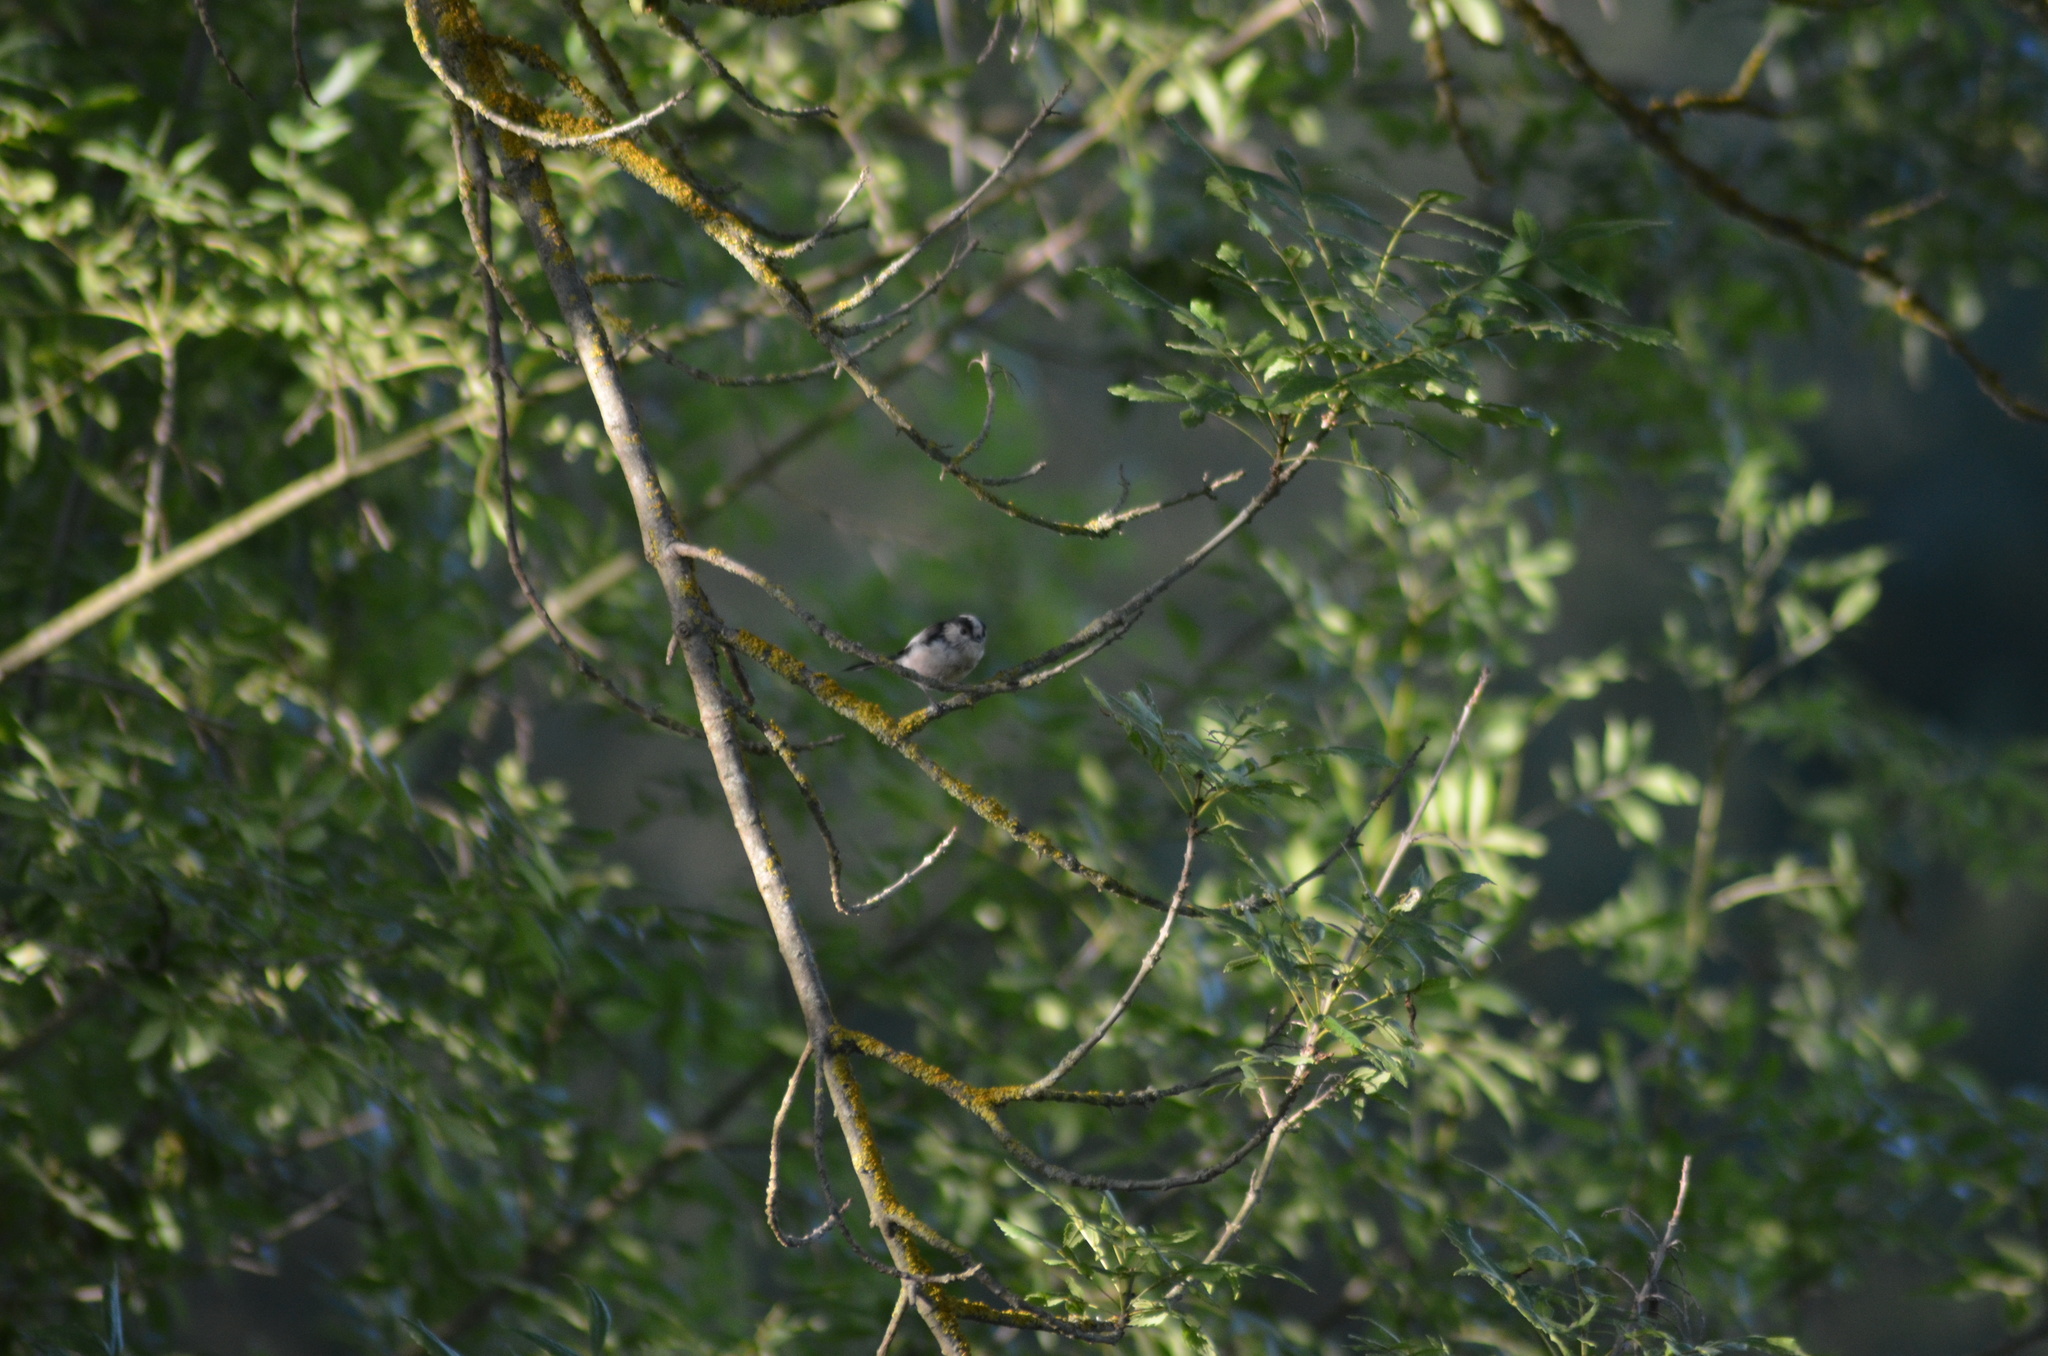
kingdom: Animalia
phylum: Chordata
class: Aves
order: Passeriformes
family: Aegithalidae
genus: Aegithalos
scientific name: Aegithalos caudatus
